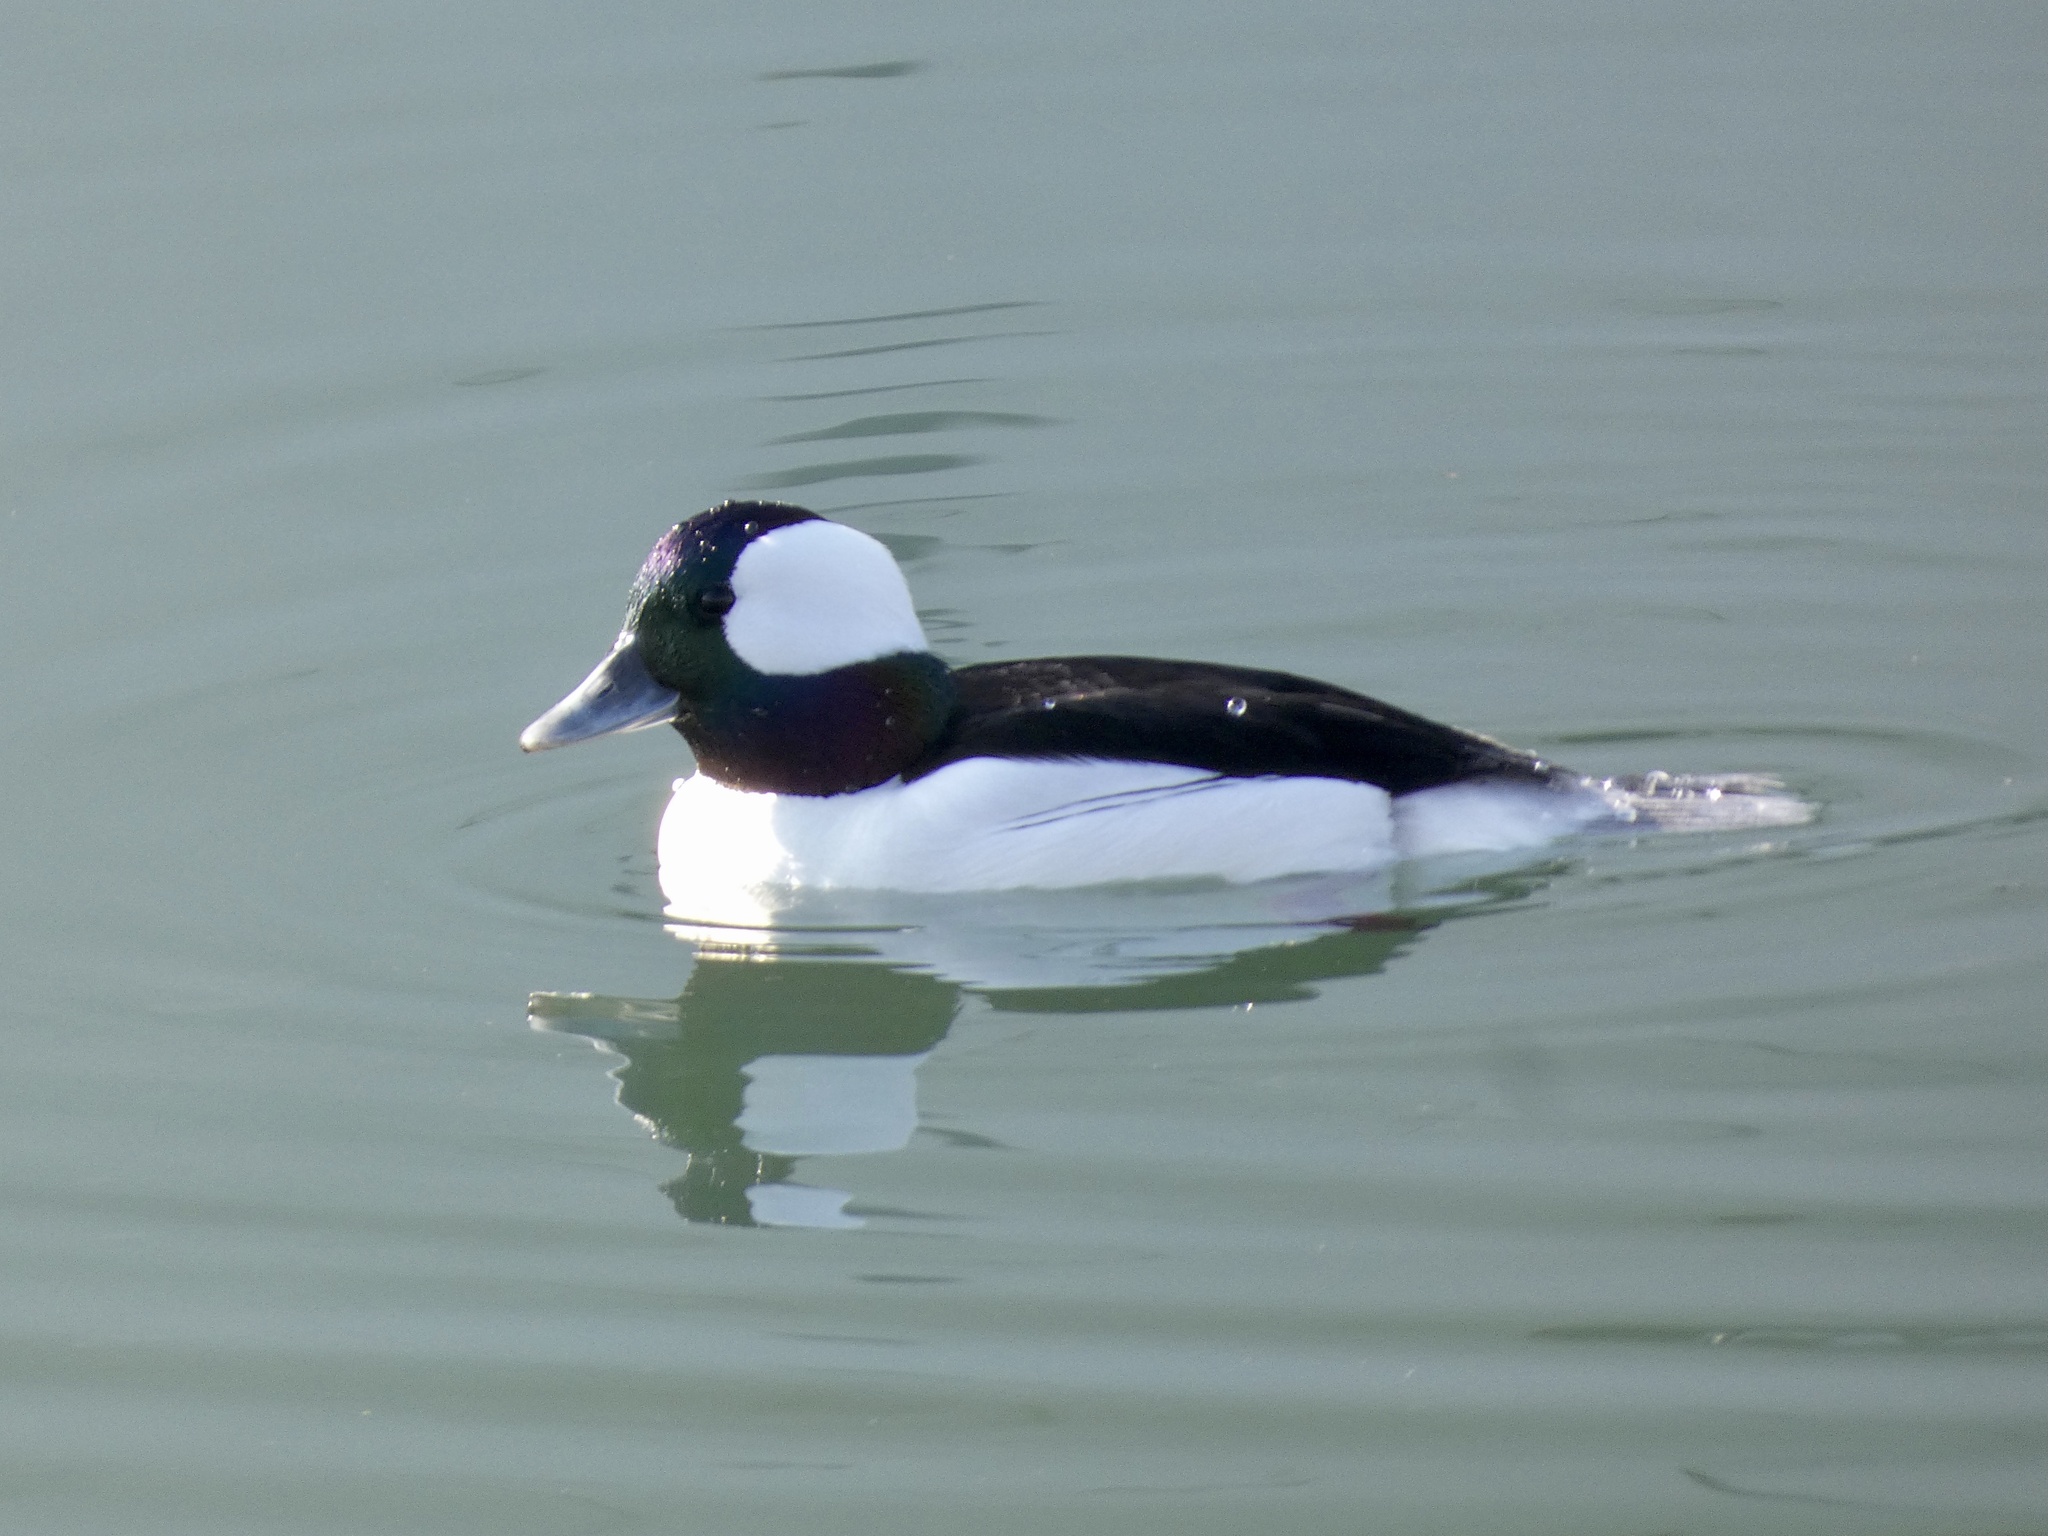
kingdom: Animalia
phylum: Chordata
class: Aves
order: Anseriformes
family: Anatidae
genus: Bucephala
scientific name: Bucephala albeola
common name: Bufflehead
